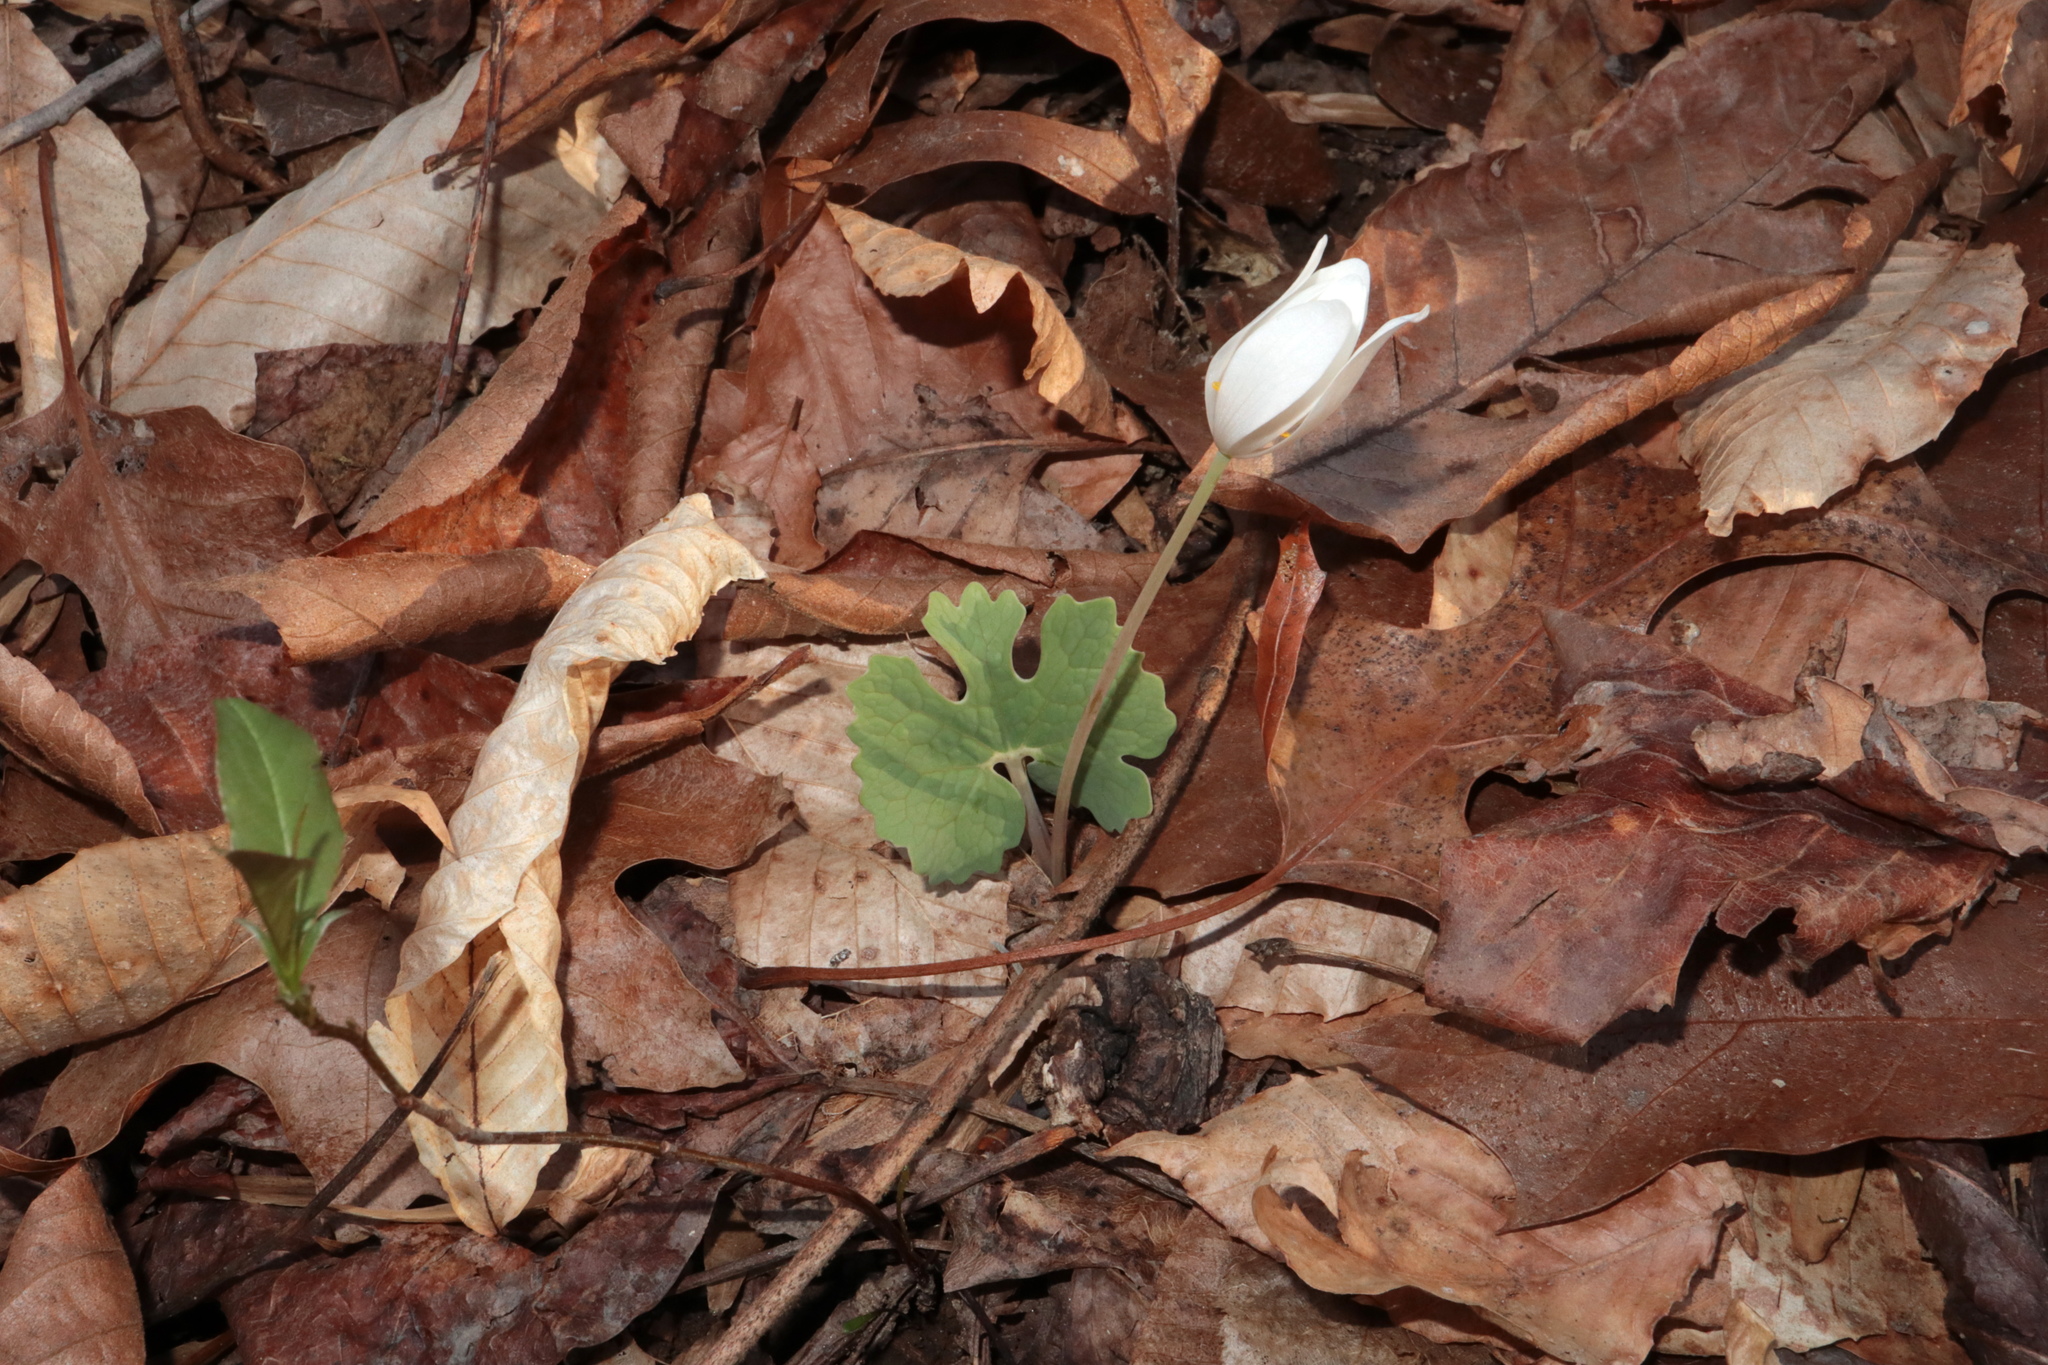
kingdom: Plantae
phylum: Tracheophyta
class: Magnoliopsida
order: Ranunculales
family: Papaveraceae
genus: Sanguinaria
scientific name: Sanguinaria canadensis
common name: Bloodroot
